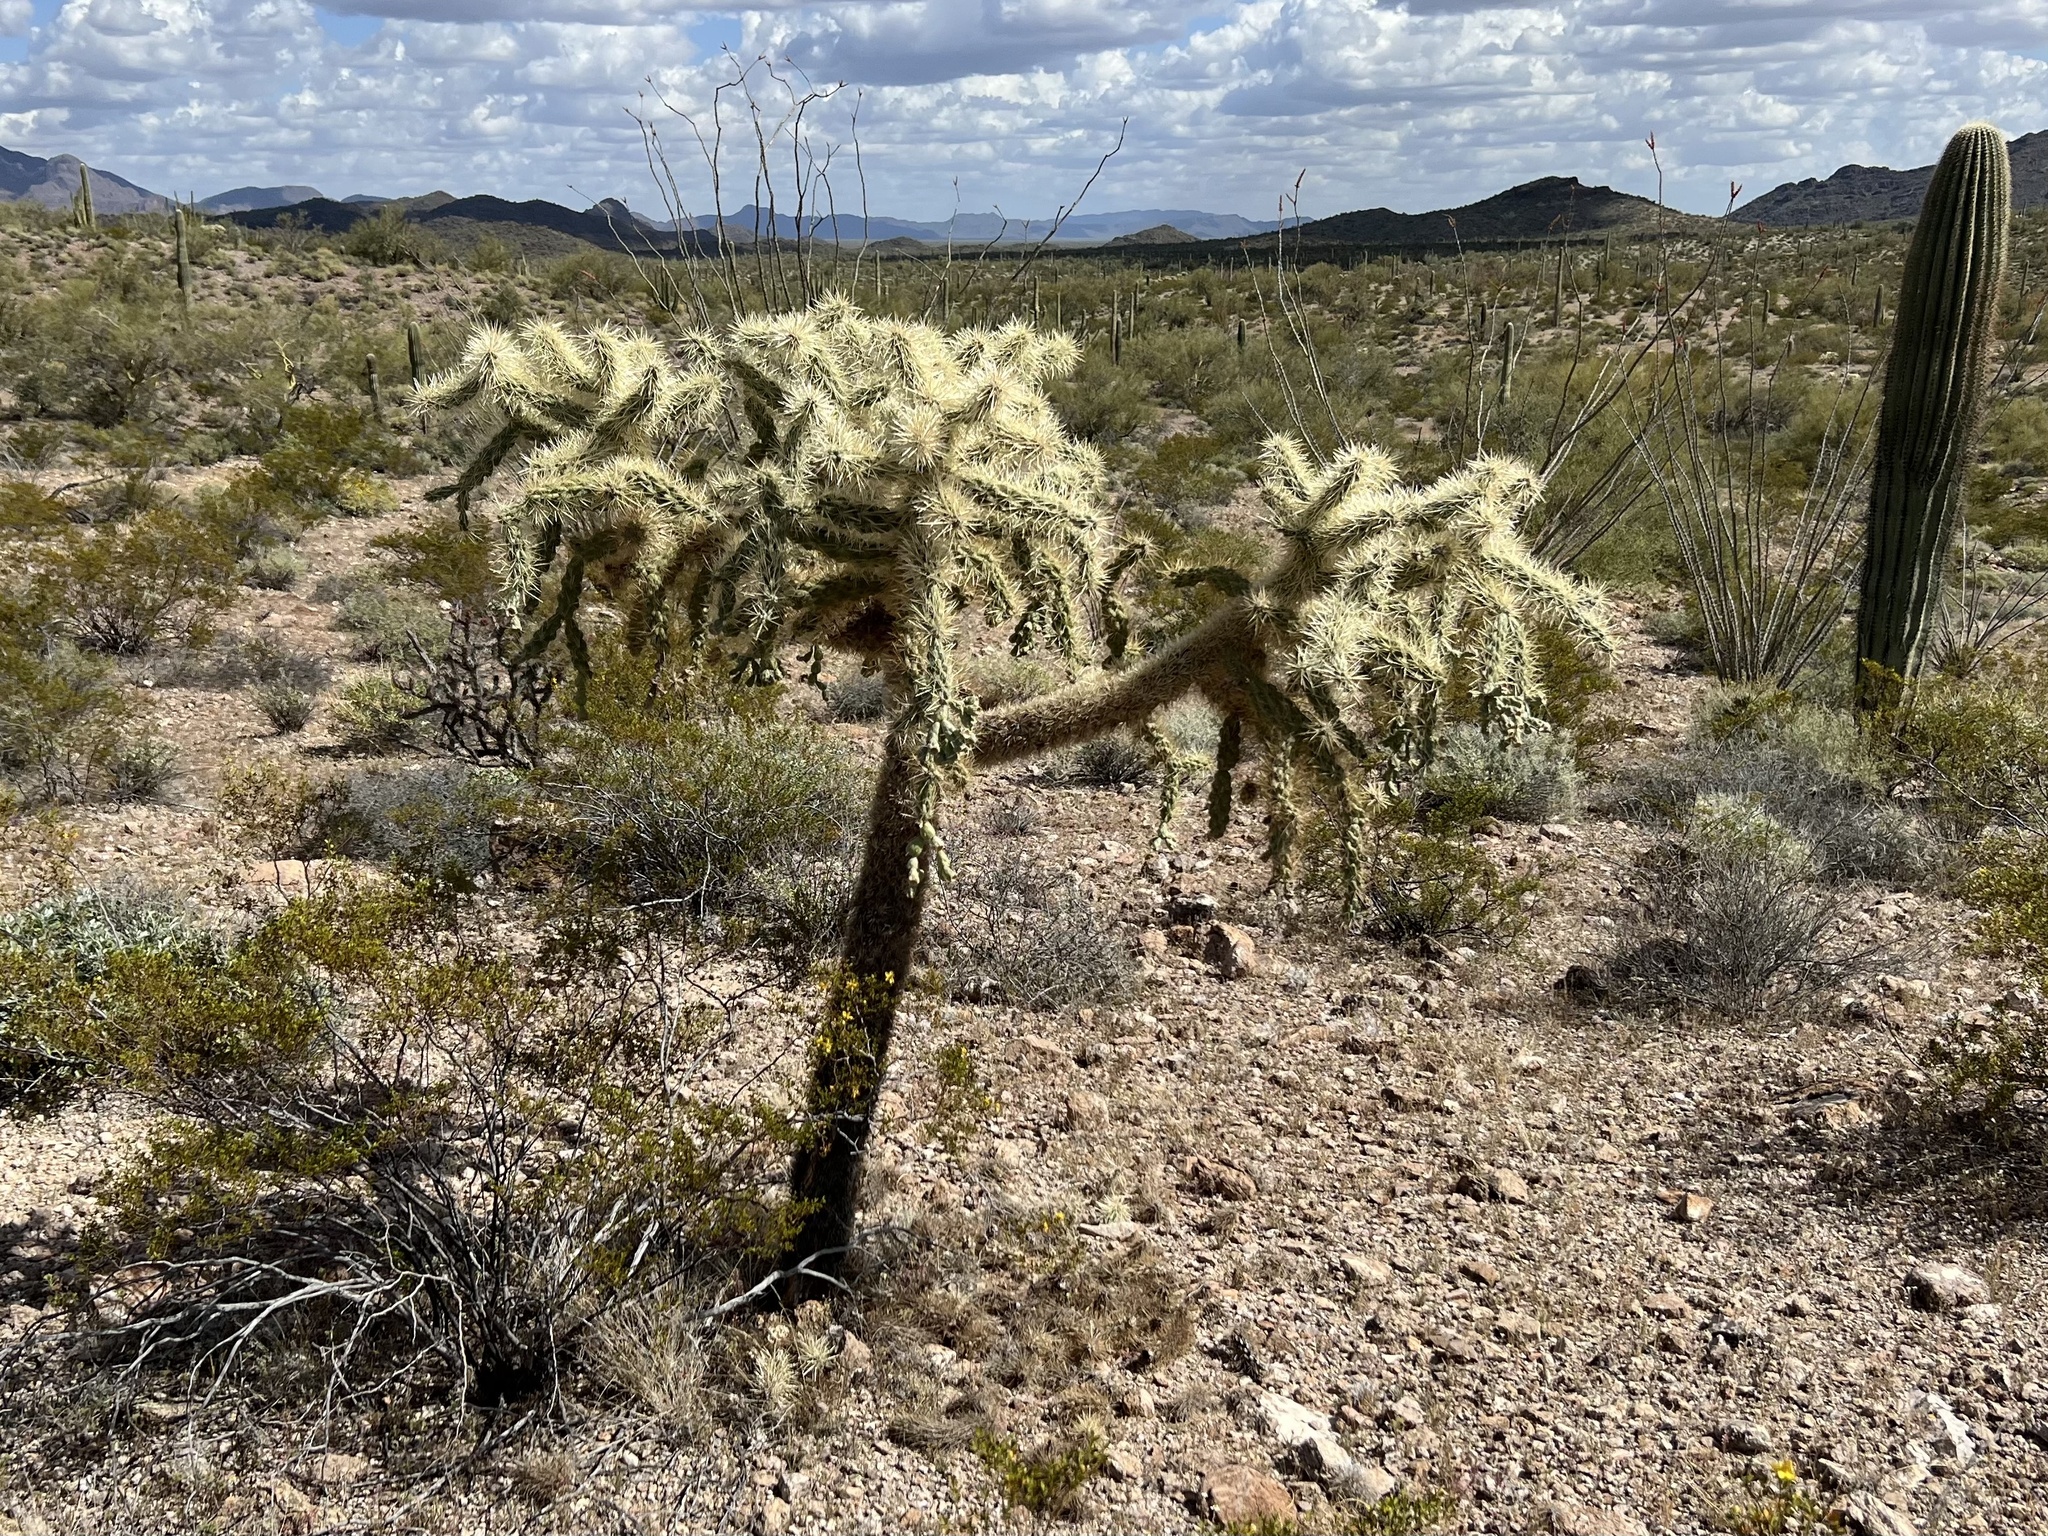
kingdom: Plantae
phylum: Tracheophyta
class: Magnoliopsida
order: Caryophyllales
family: Cactaceae
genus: Cylindropuntia
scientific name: Cylindropuntia fulgida
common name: Jumping cholla
